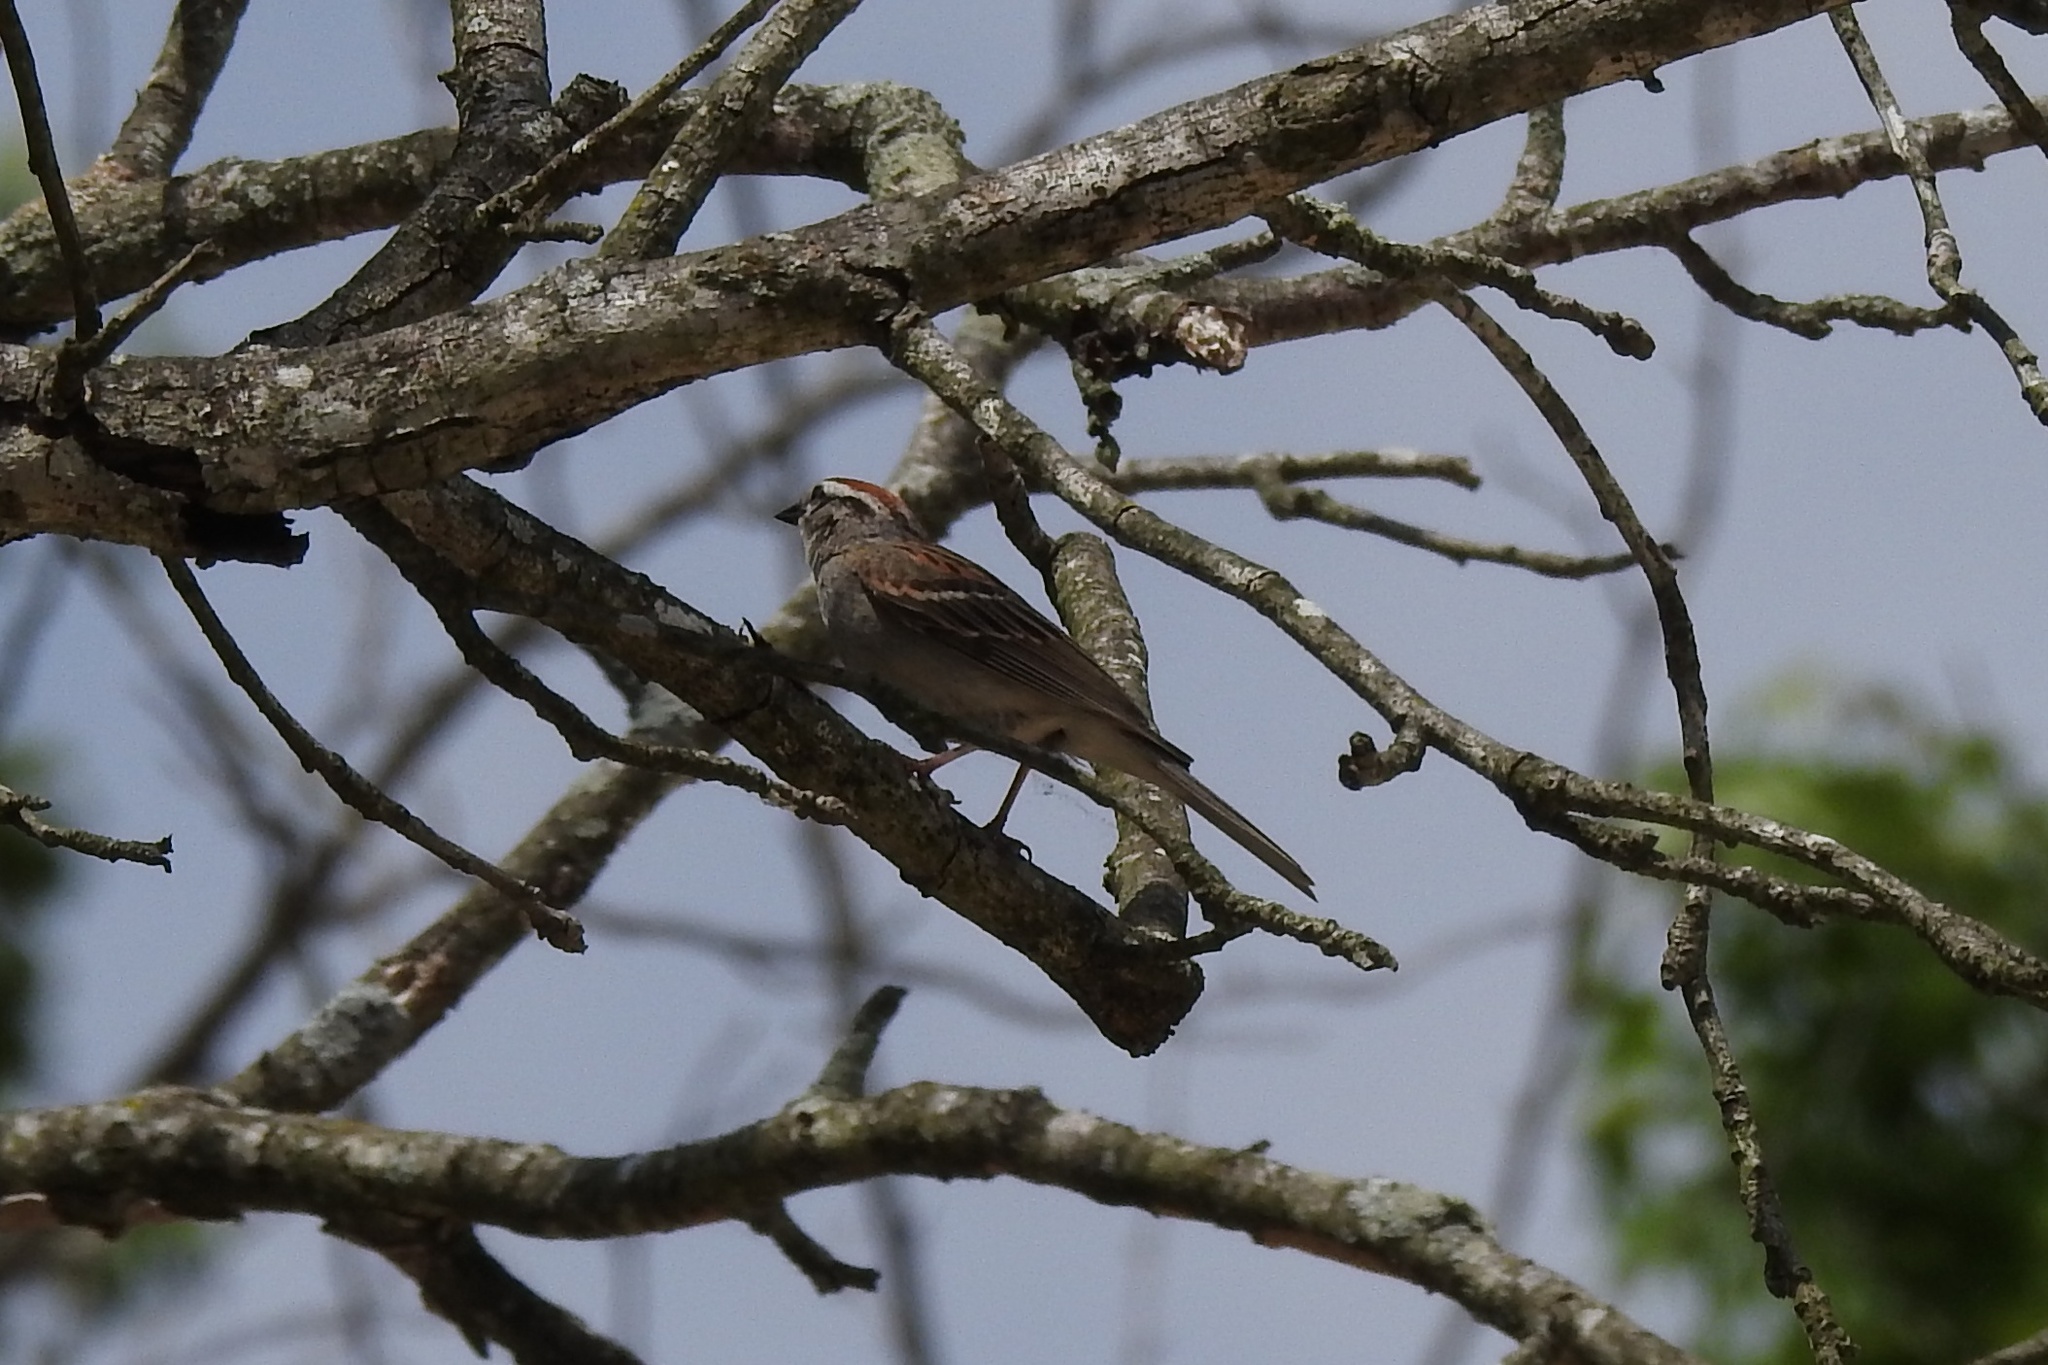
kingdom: Animalia
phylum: Chordata
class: Aves
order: Passeriformes
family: Passerellidae
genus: Spizella
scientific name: Spizella passerina
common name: Chipping sparrow
